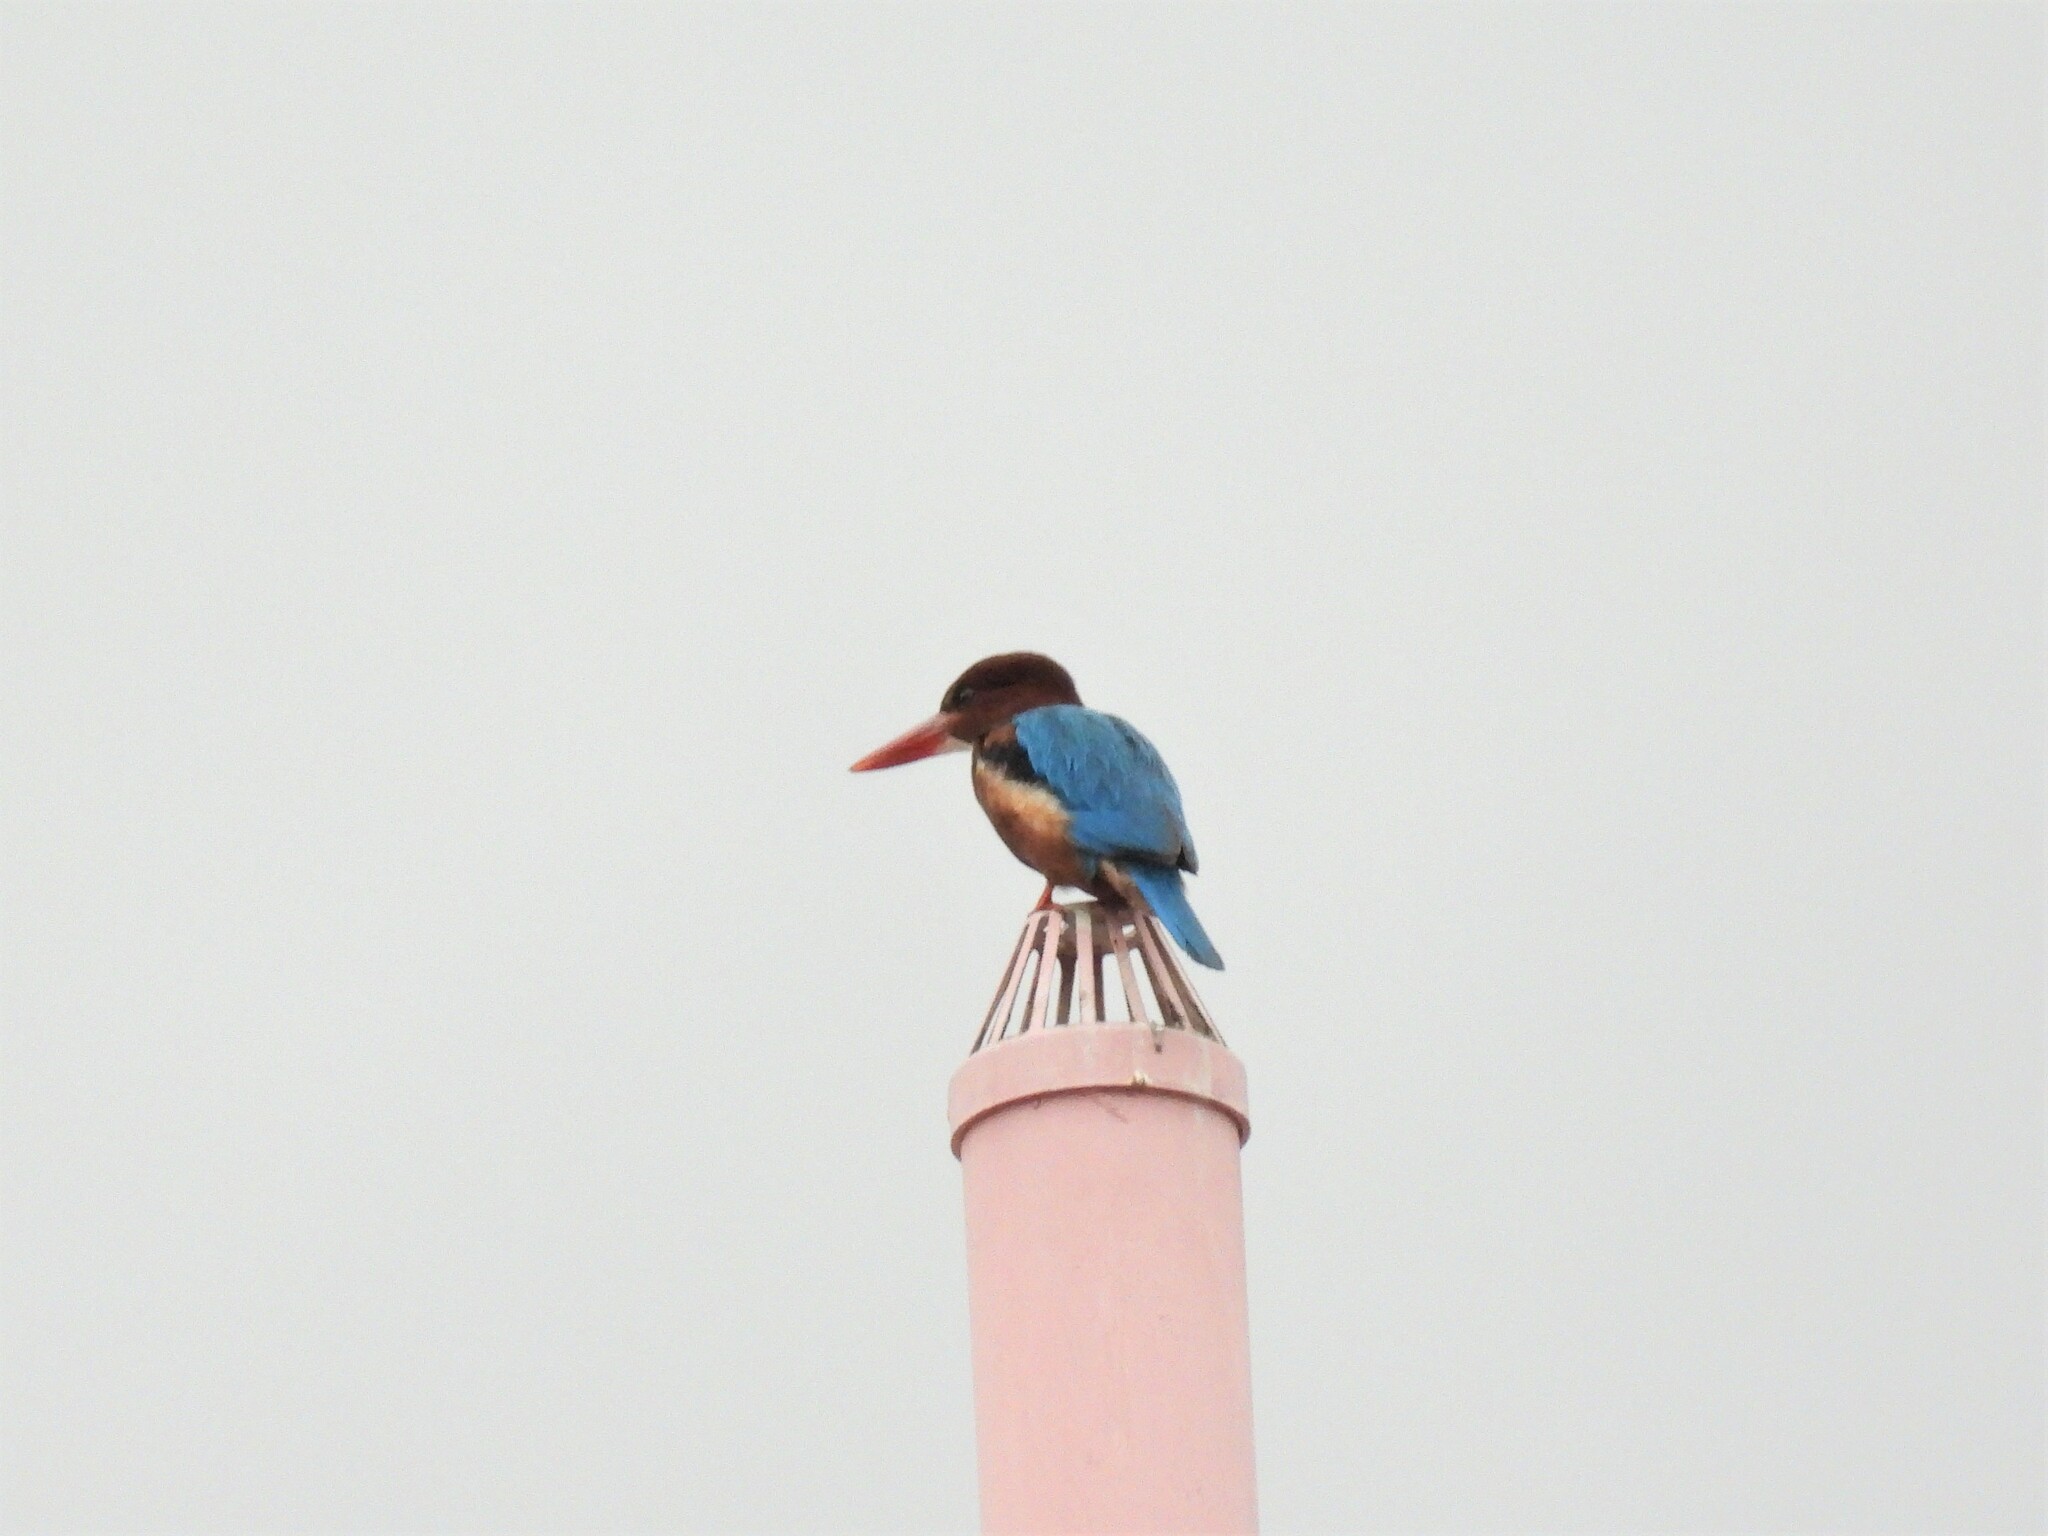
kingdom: Animalia
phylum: Chordata
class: Aves
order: Coraciiformes
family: Alcedinidae
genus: Halcyon
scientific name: Halcyon smyrnensis
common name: White-throated kingfisher
